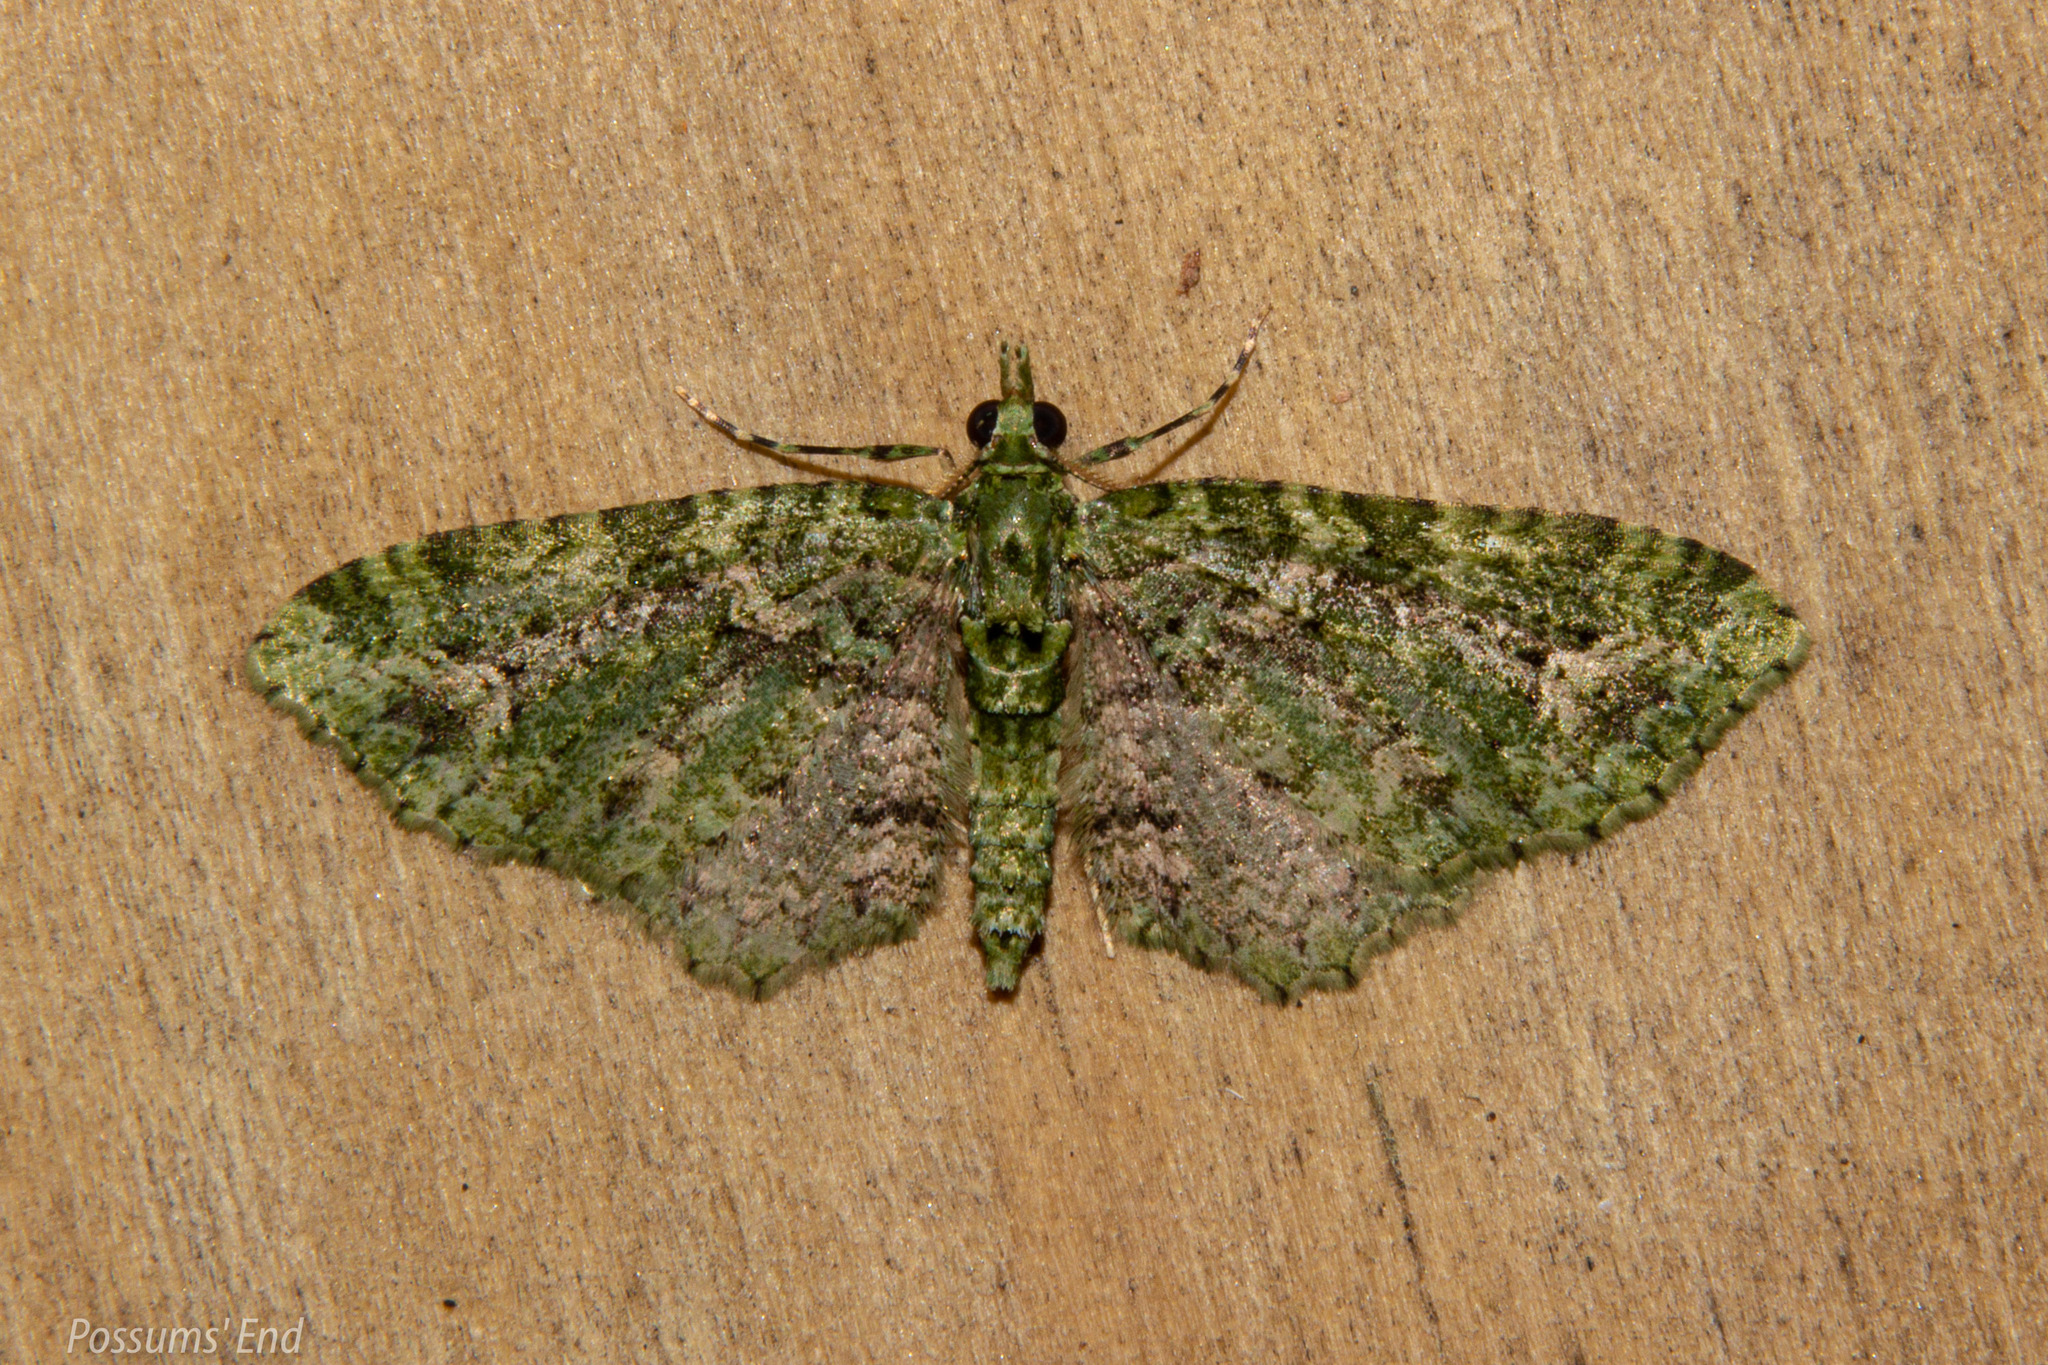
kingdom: Animalia
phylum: Arthropoda
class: Insecta
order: Lepidoptera
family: Geometridae
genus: Pasiphila
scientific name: Pasiphila muscosata
